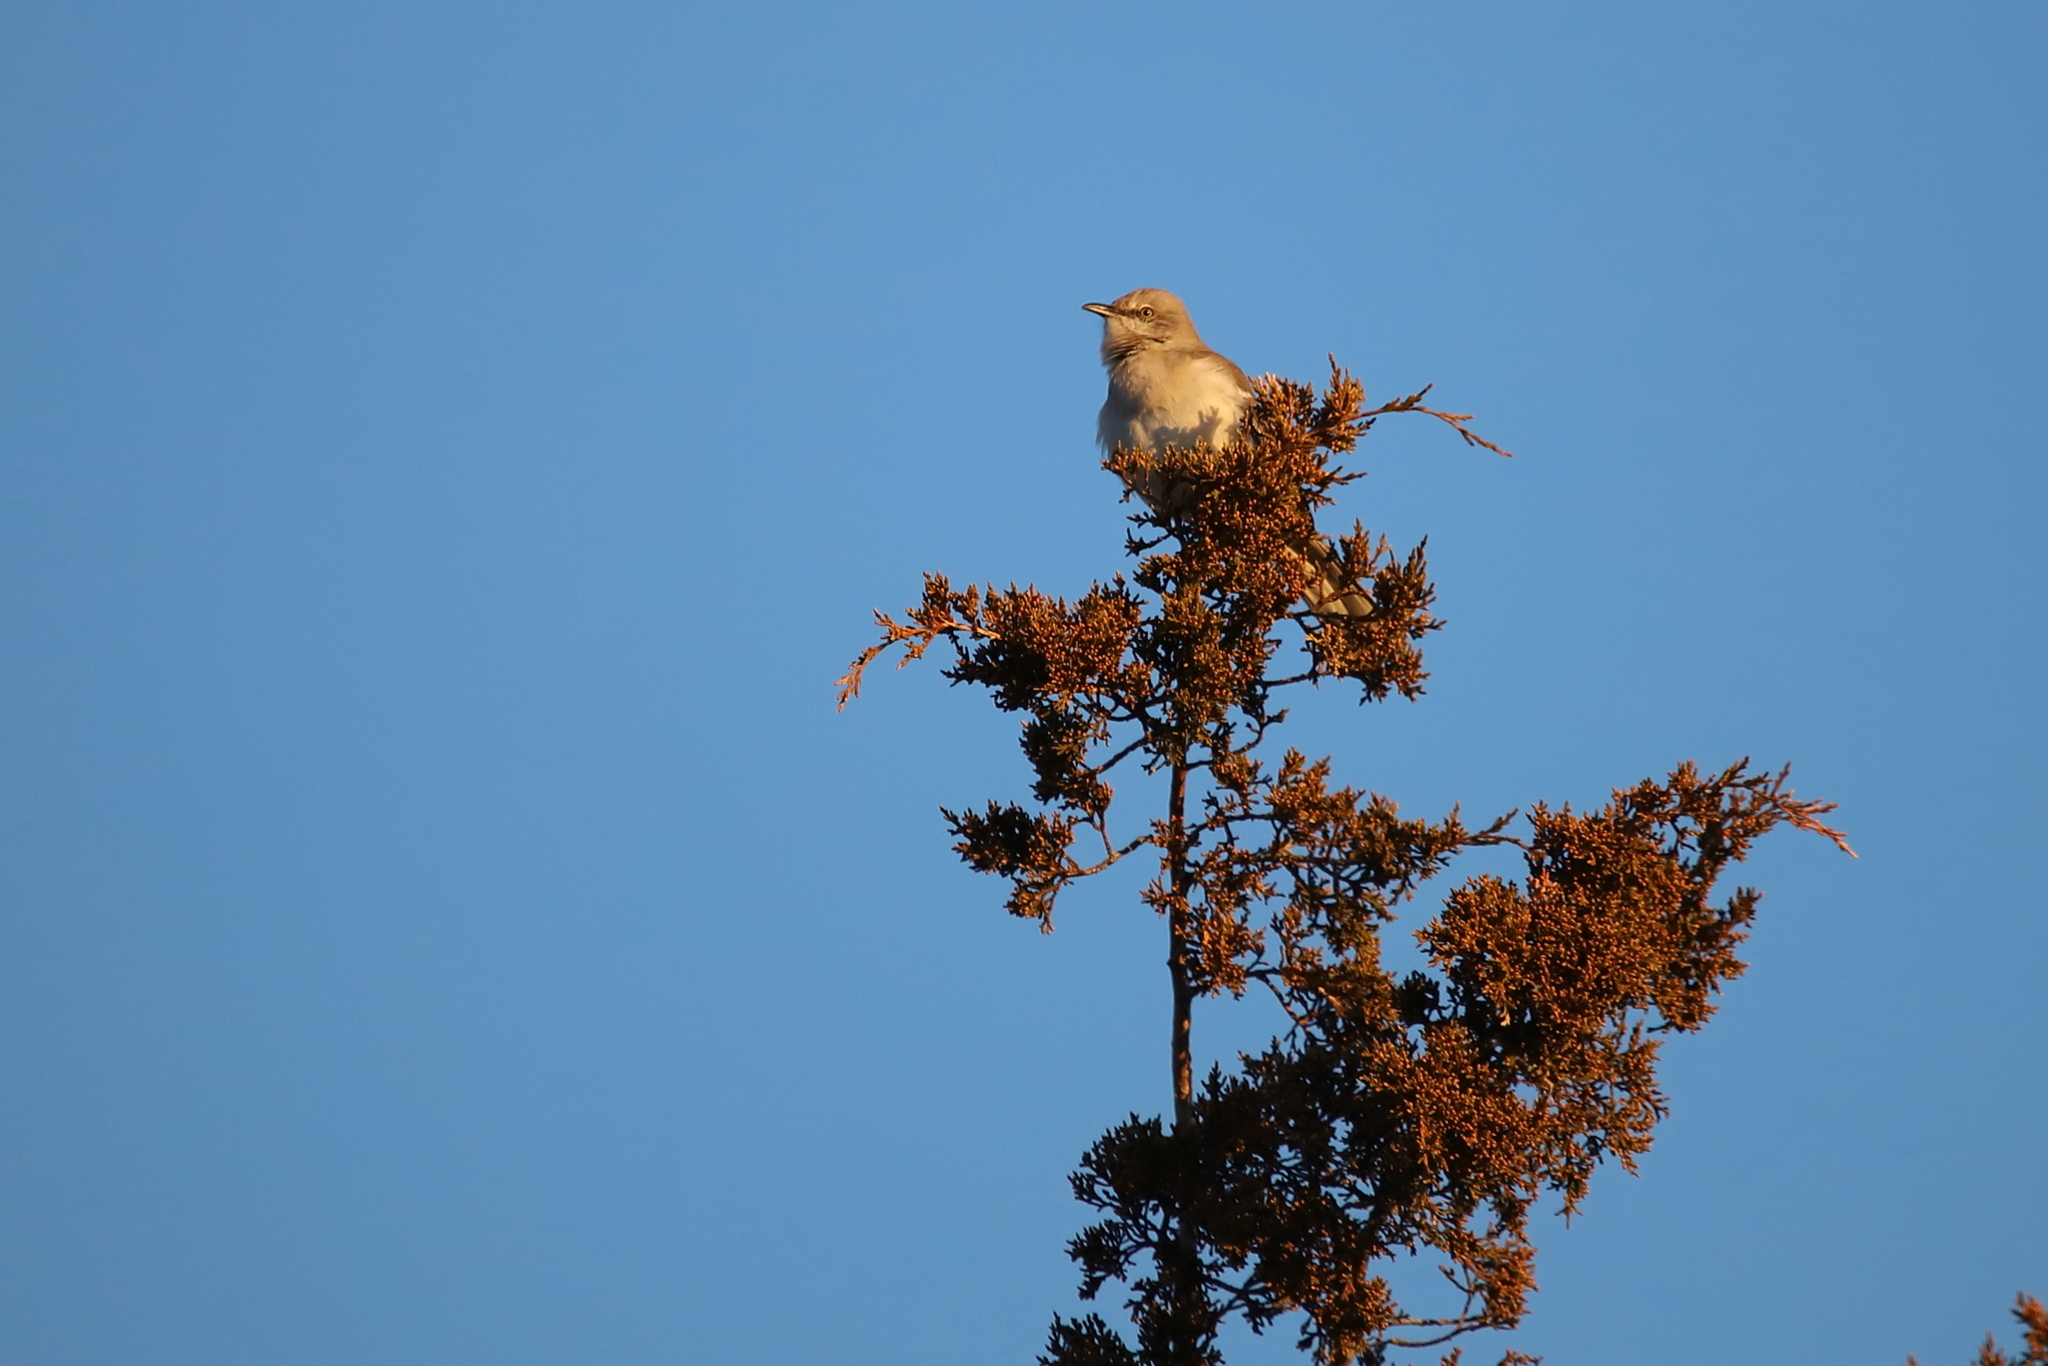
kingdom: Animalia
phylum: Chordata
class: Aves
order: Passeriformes
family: Mimidae
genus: Mimus
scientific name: Mimus polyglottos
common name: Northern mockingbird
